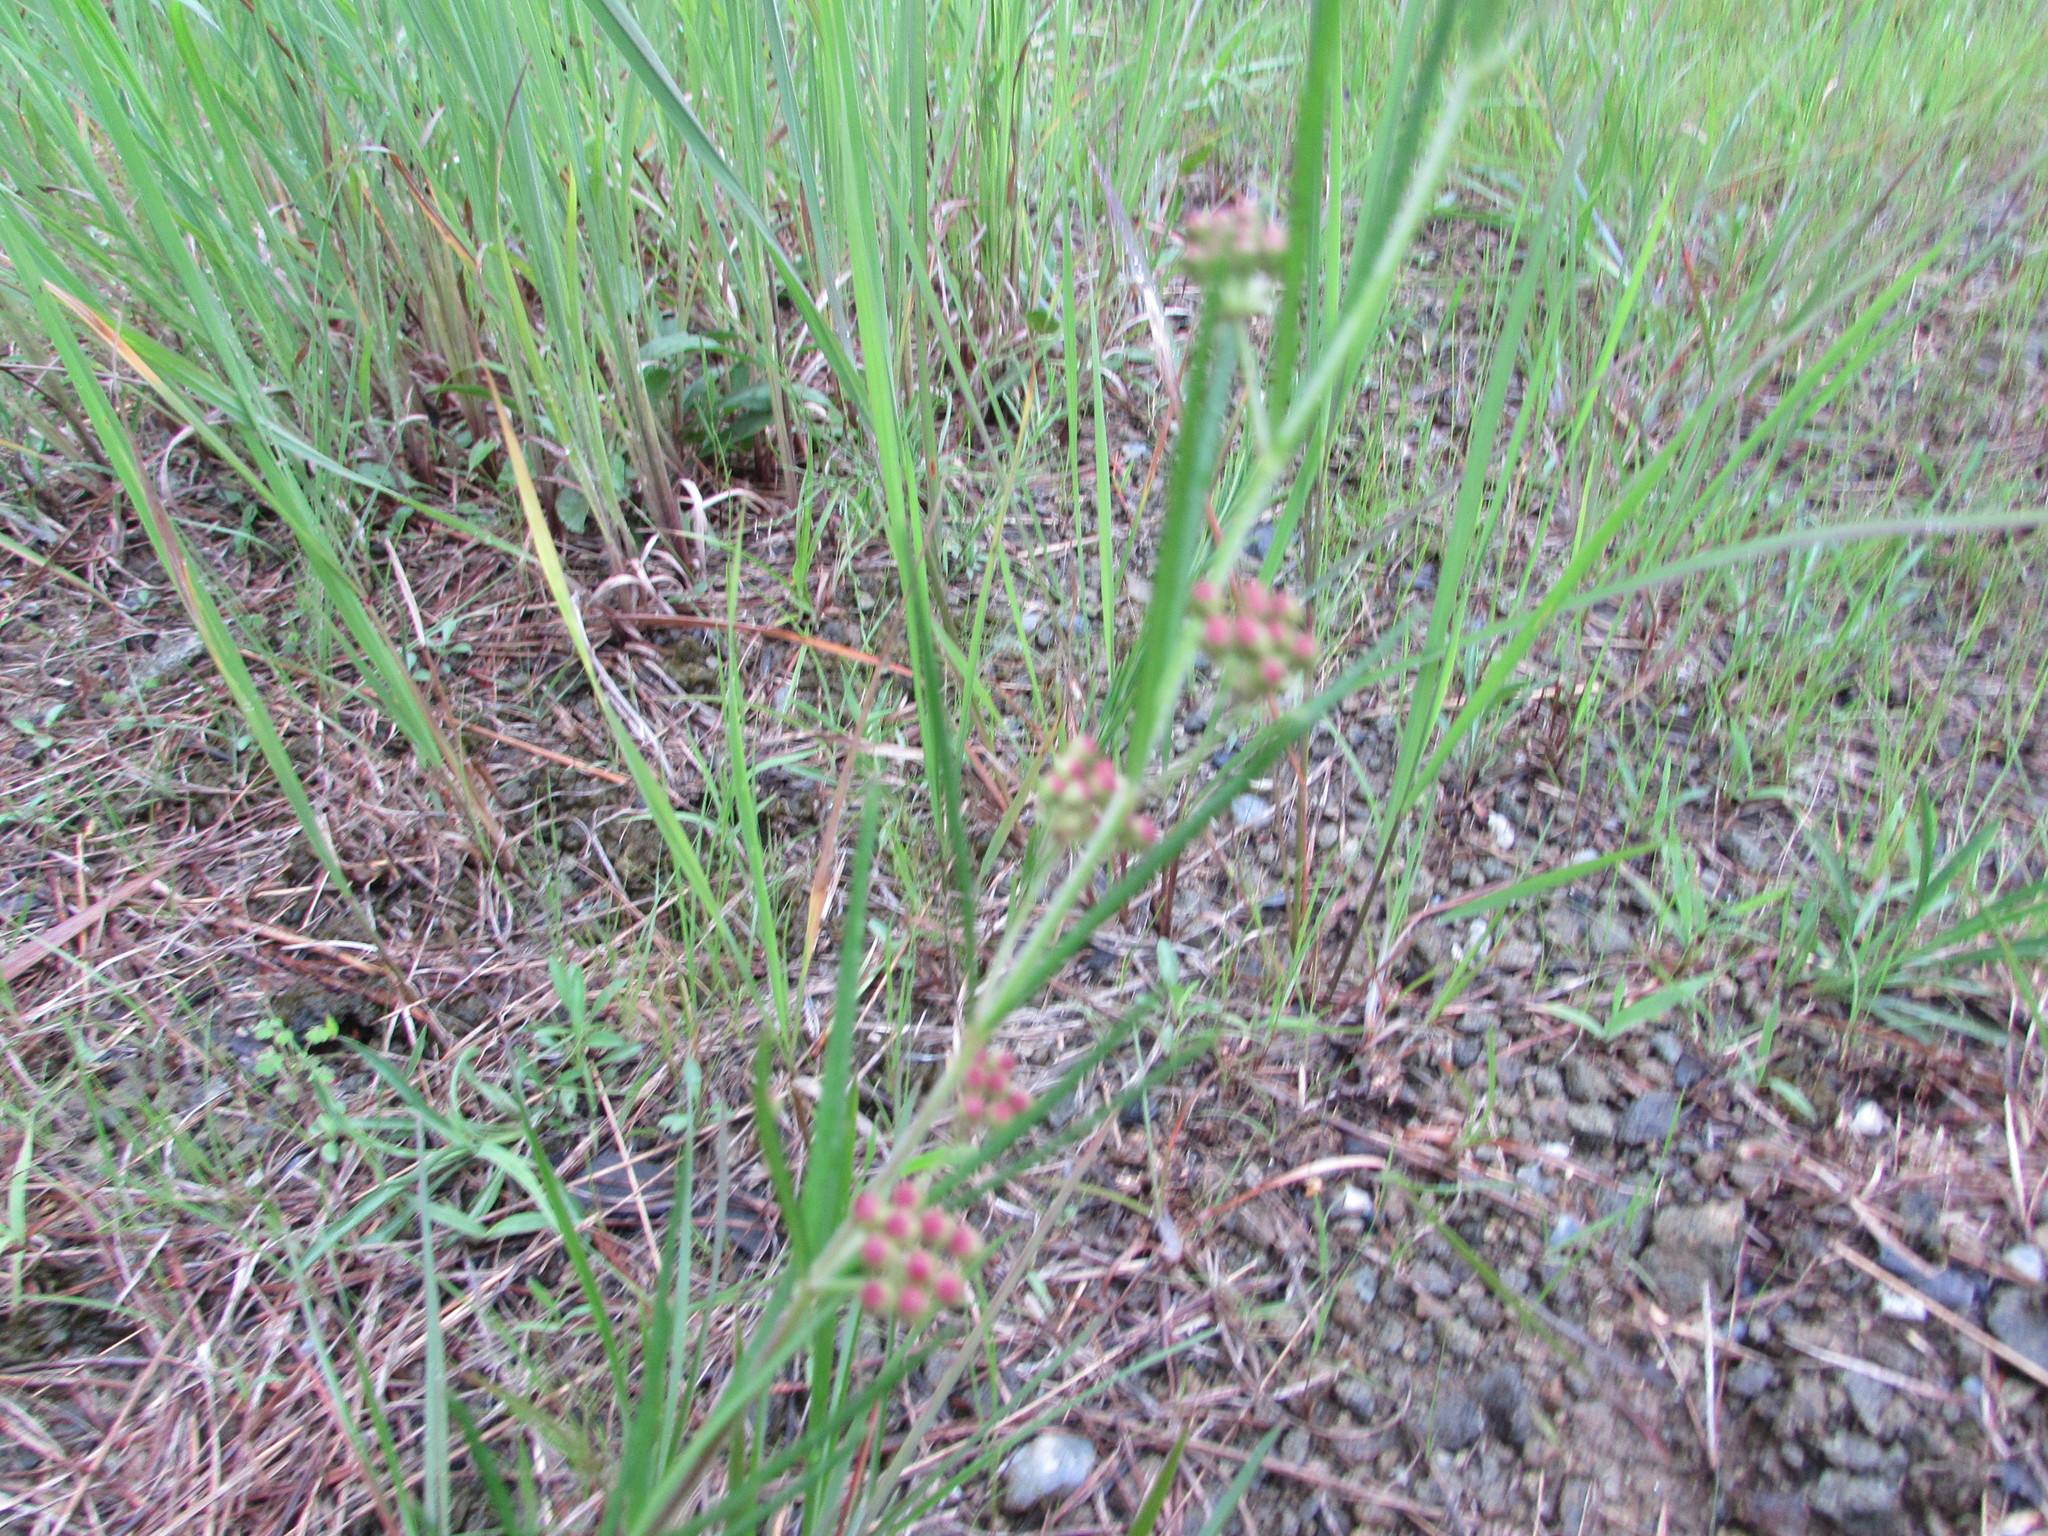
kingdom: Plantae
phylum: Tracheophyta
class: Magnoliopsida
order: Gentianales
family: Apocynaceae
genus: Asclepias
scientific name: Asclepias verticillata
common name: Eastern whorled milkweed
